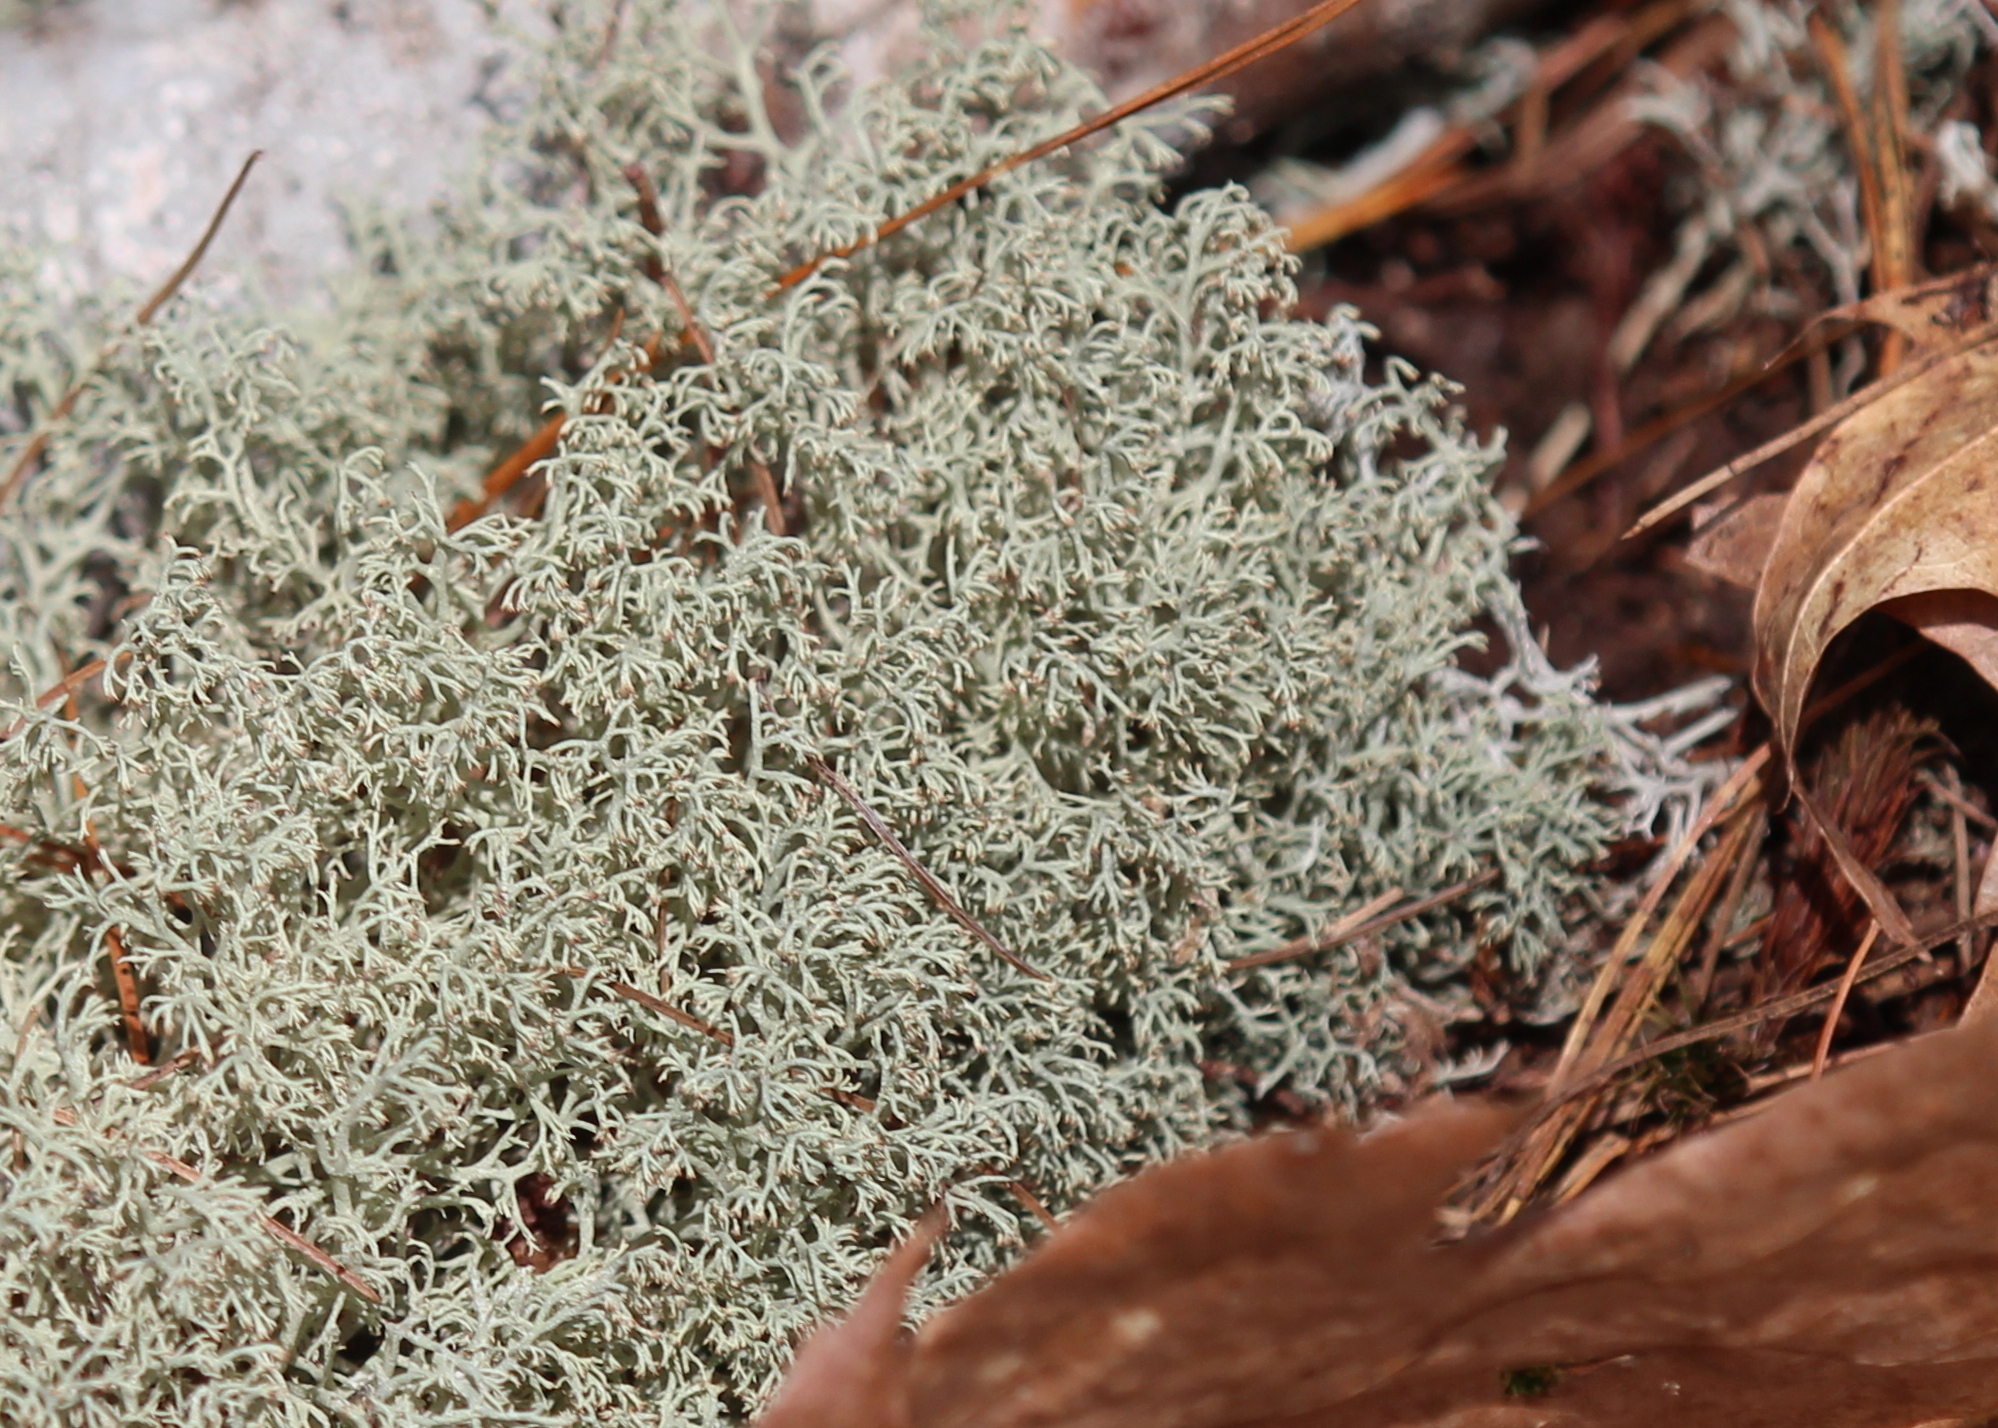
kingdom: Fungi
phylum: Ascomycota
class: Lecanoromycetes
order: Lecanorales
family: Cladoniaceae
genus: Cladonia
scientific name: Cladonia arbuscula
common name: Reindeer lichen
